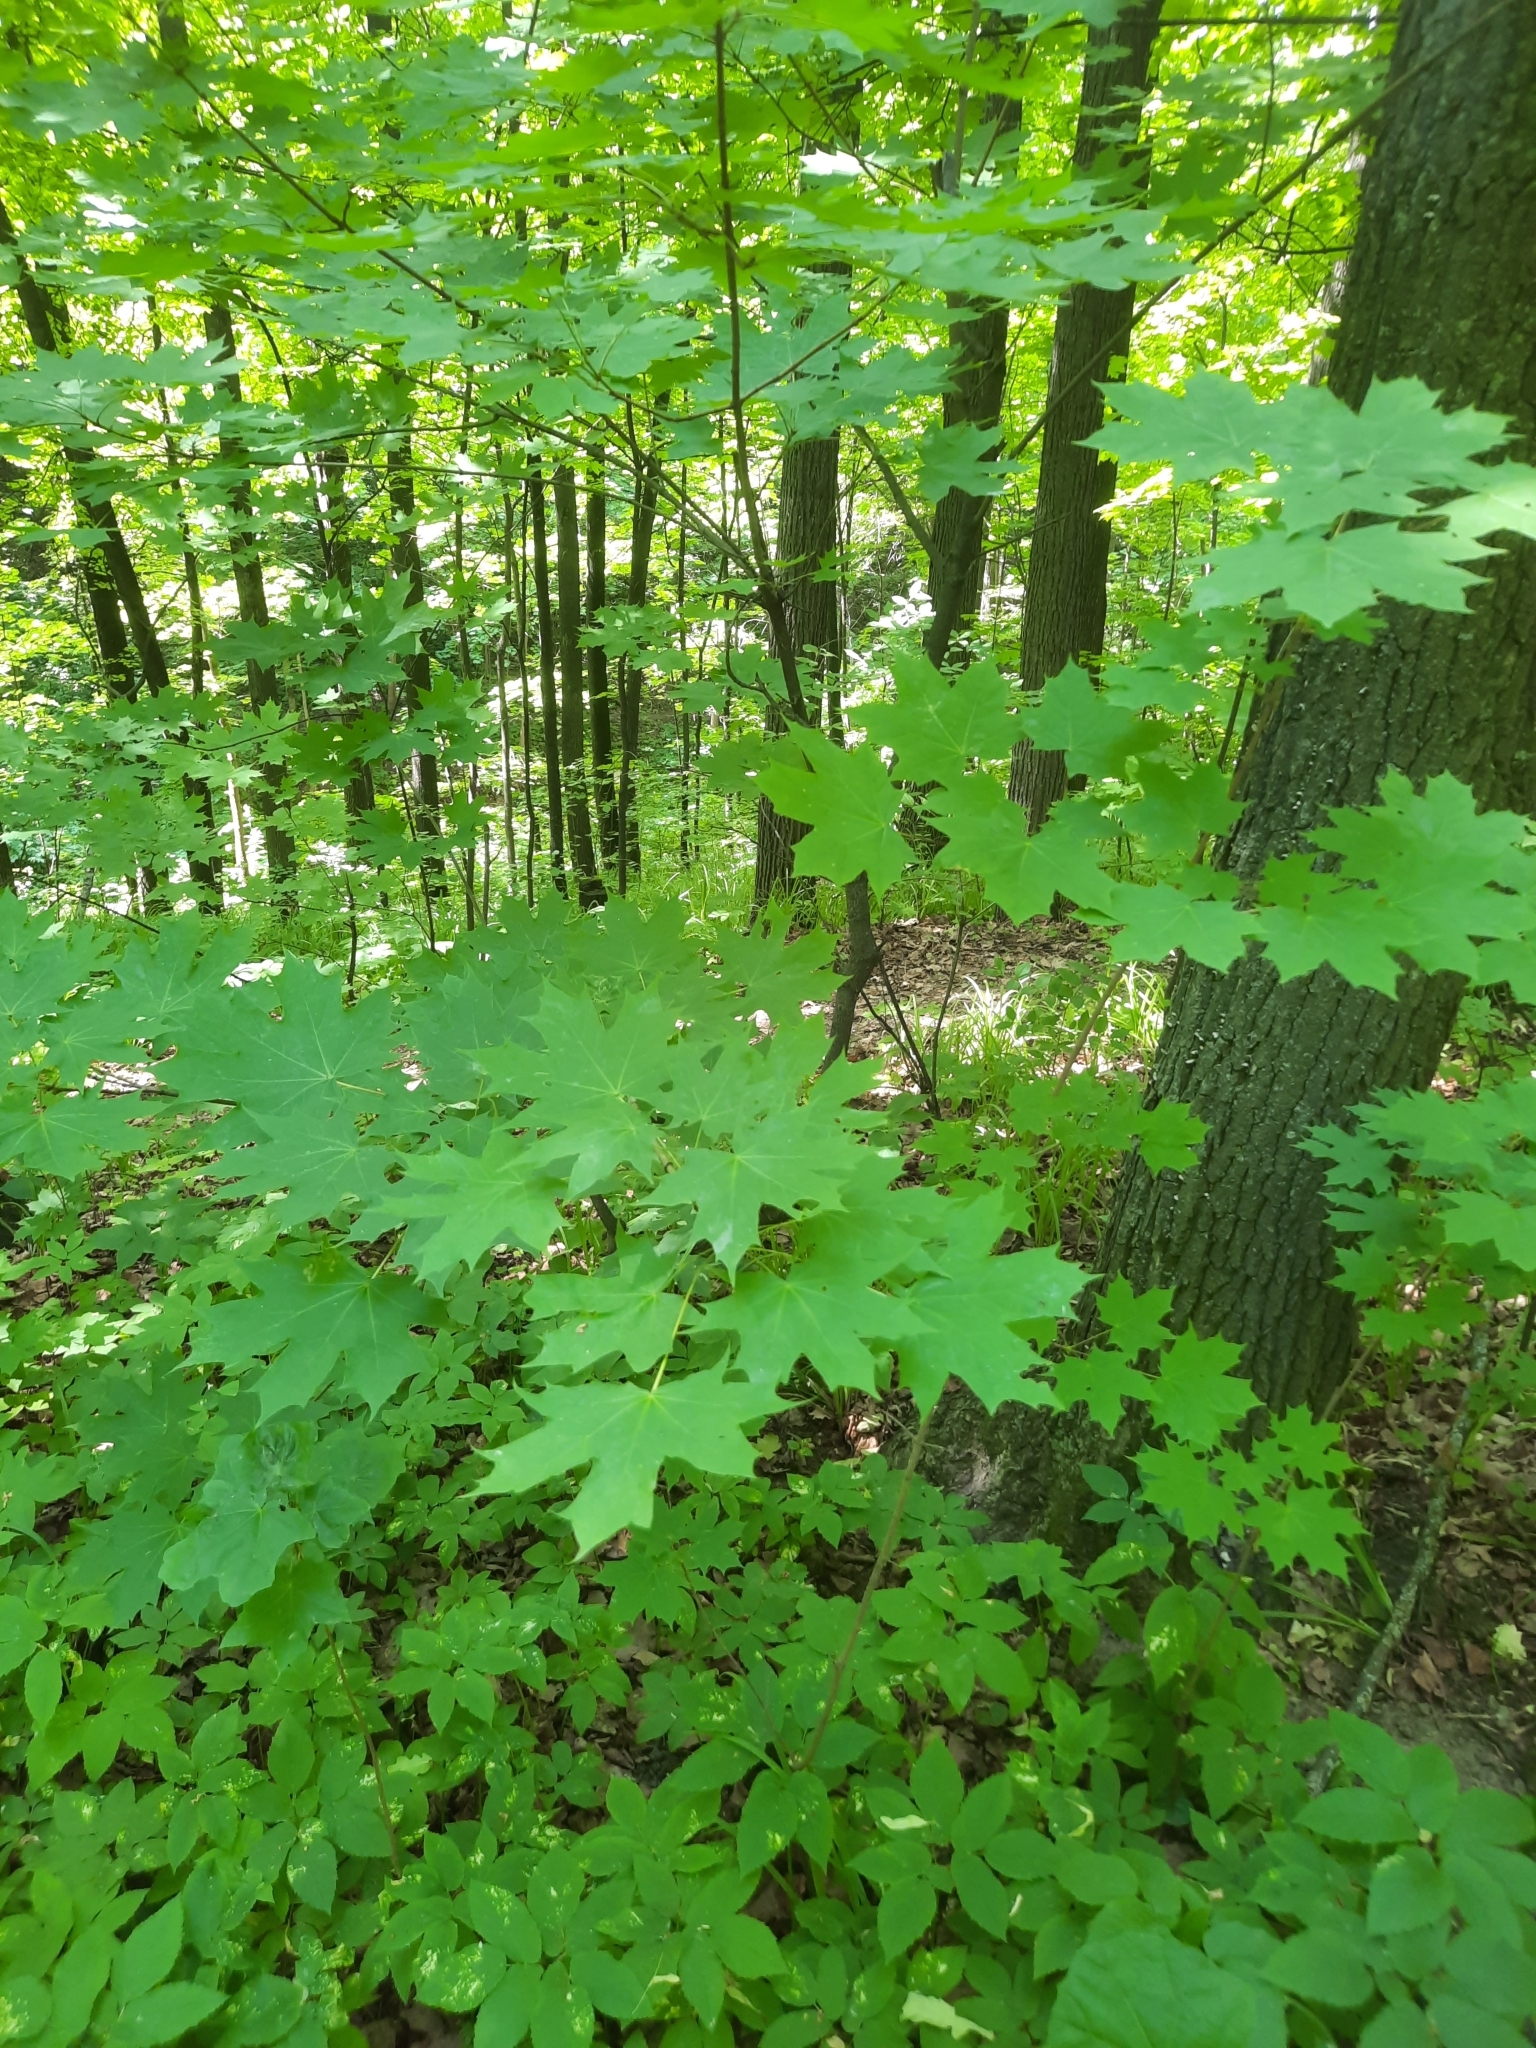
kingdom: Plantae
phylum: Tracheophyta
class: Magnoliopsida
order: Sapindales
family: Sapindaceae
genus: Acer
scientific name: Acer platanoides
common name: Norway maple
